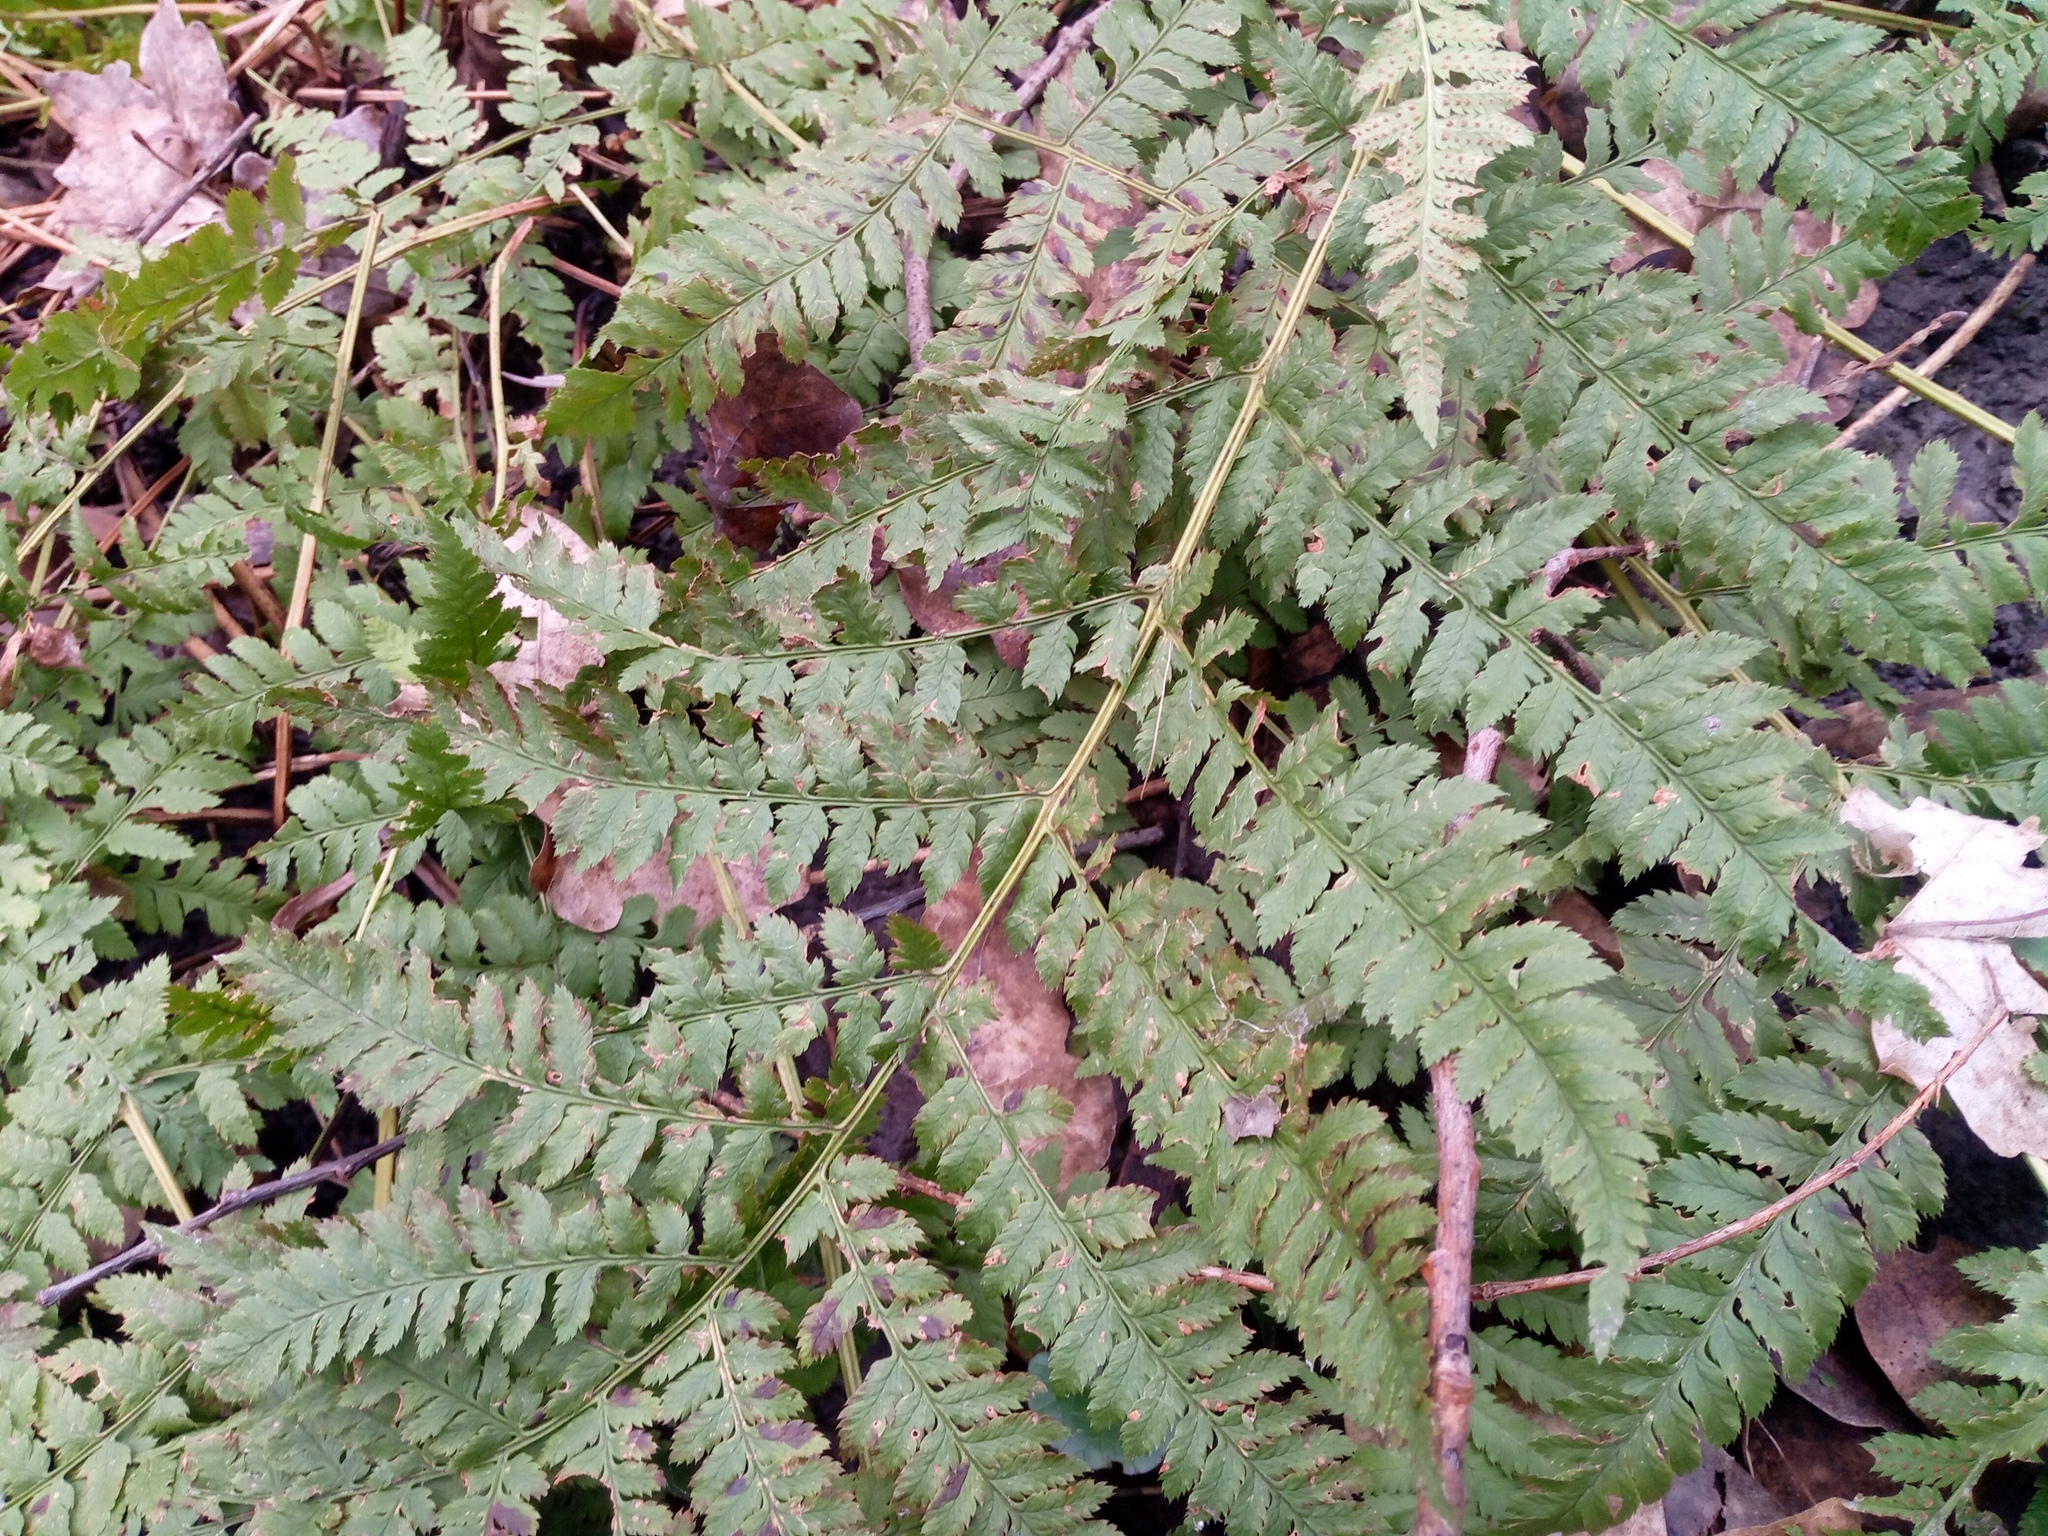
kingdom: Plantae
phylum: Tracheophyta
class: Polypodiopsida
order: Polypodiales
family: Dryopteridaceae
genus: Dryopteris
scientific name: Dryopteris carthusiana
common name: Narrow buckler-fern
